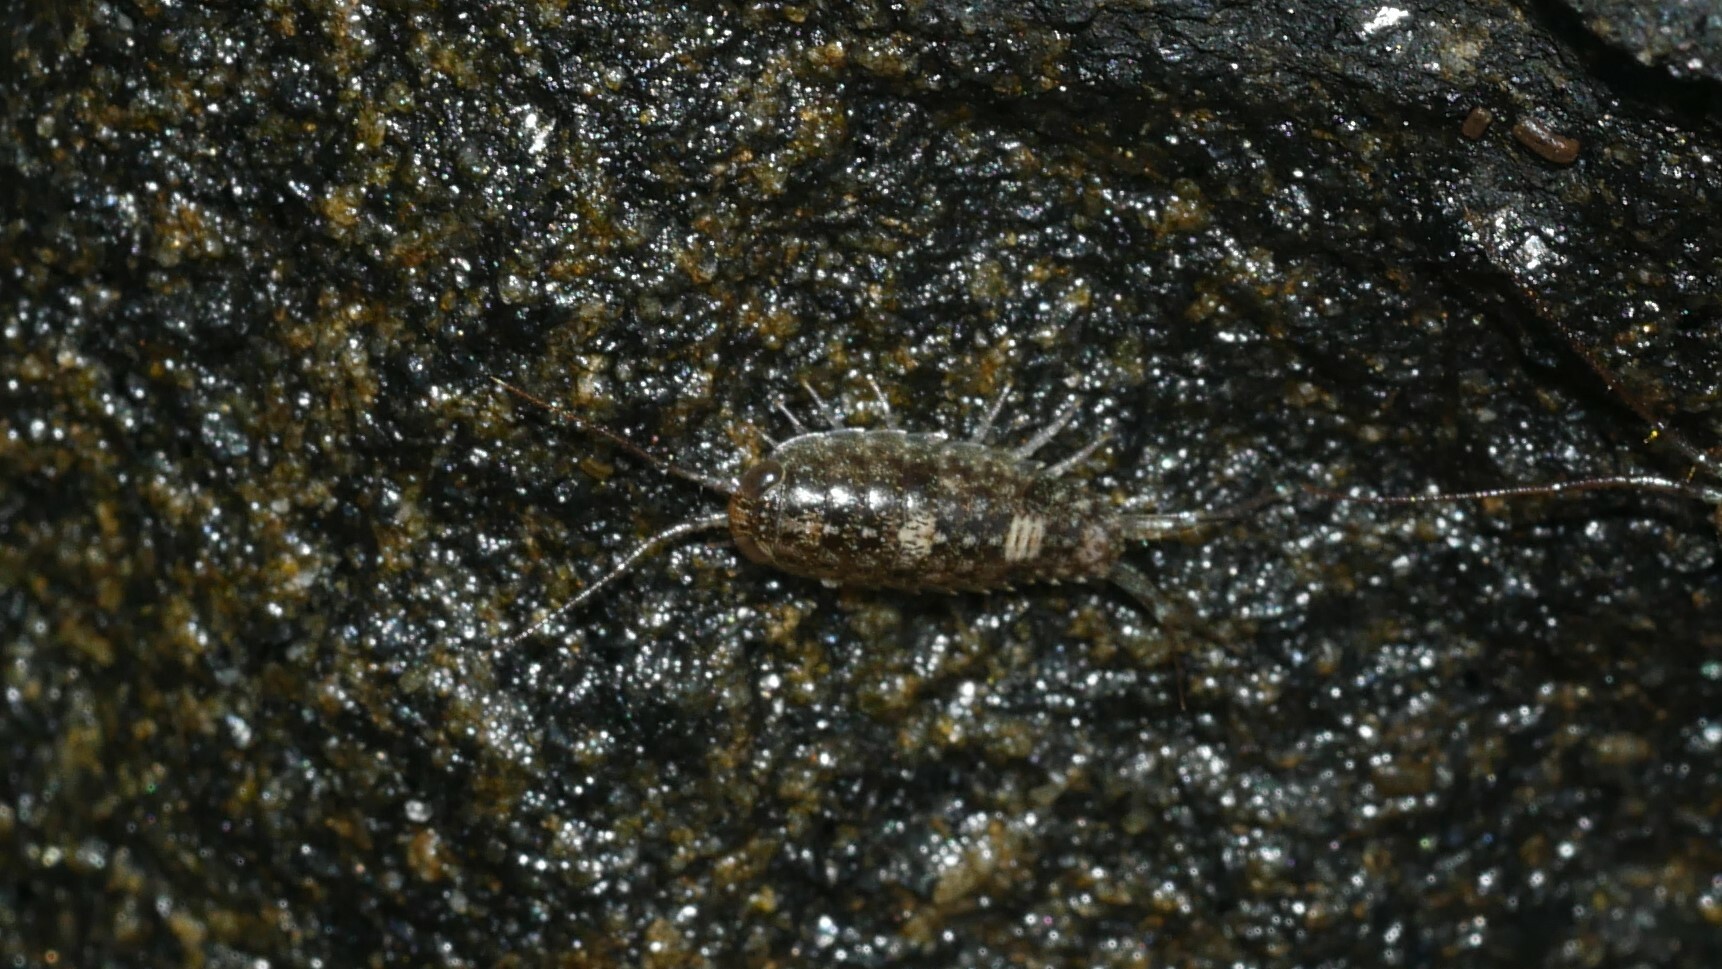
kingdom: Animalia
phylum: Arthropoda
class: Malacostraca
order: Isopoda
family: Ligiidae
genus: Ligia
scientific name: Ligia exotica
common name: Wharf roach
